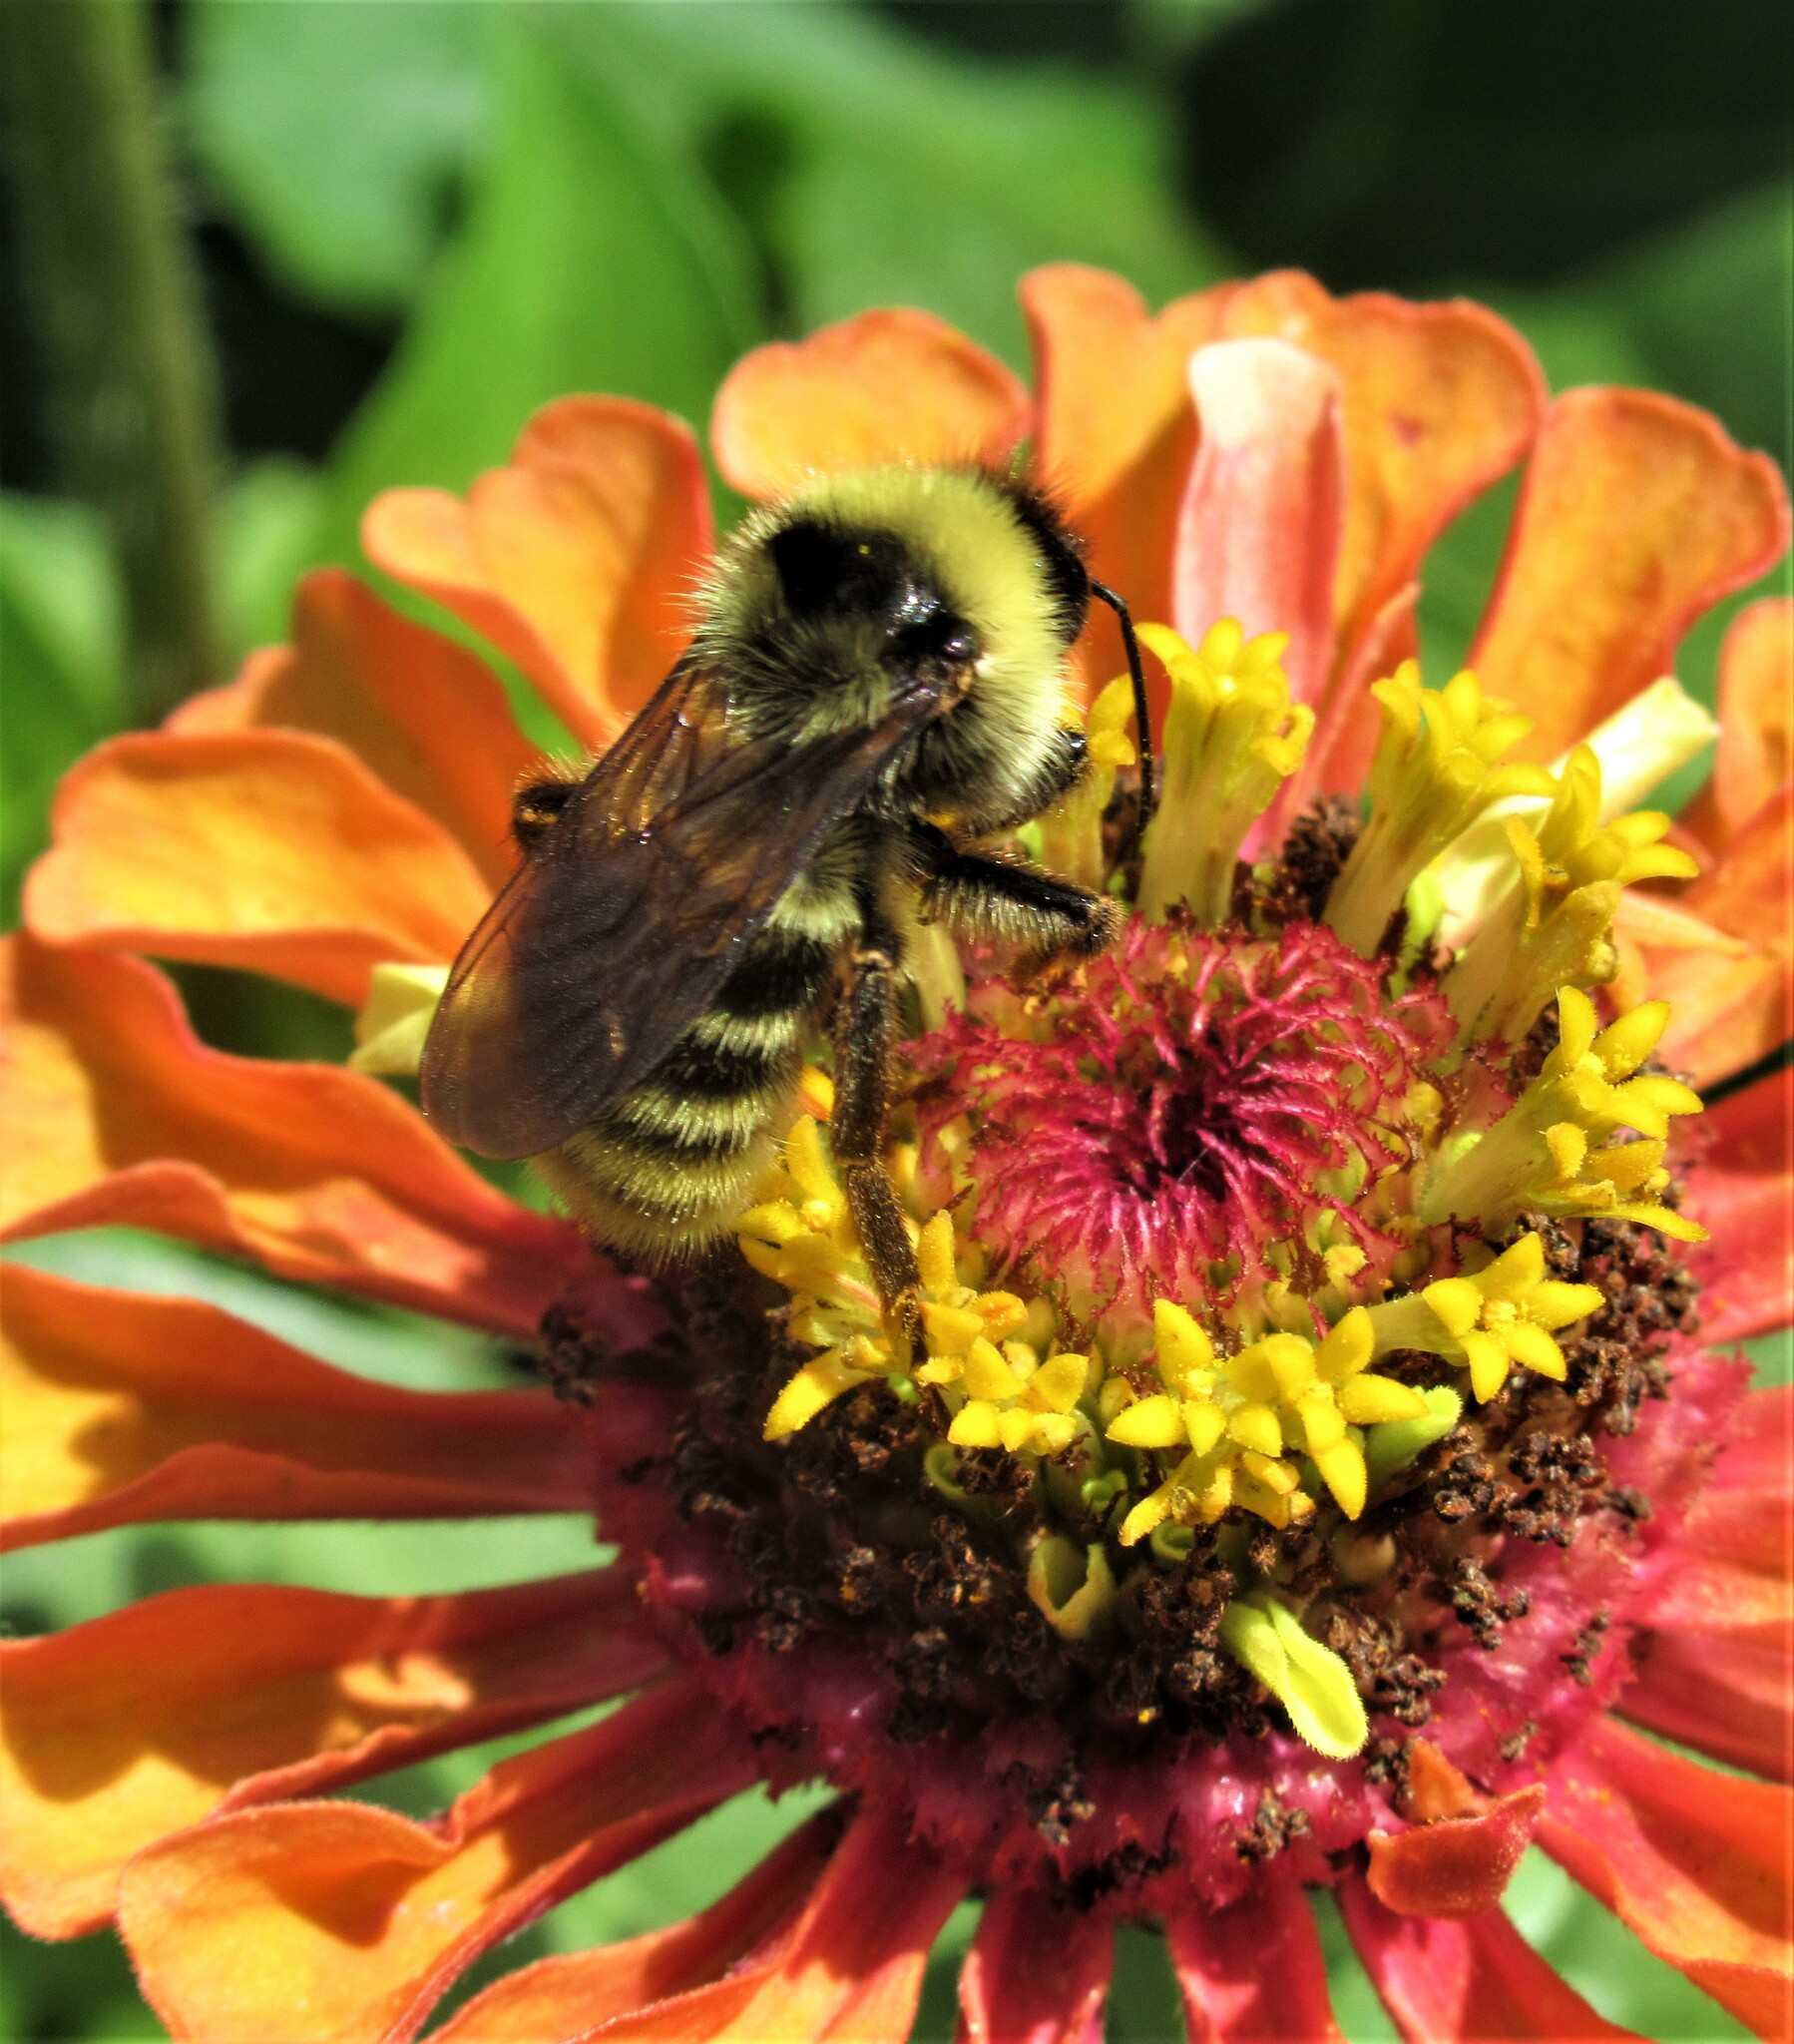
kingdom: Animalia
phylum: Arthropoda
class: Insecta
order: Hymenoptera
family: Apidae
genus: Bombus
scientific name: Bombus californicus
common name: California bumble bee
